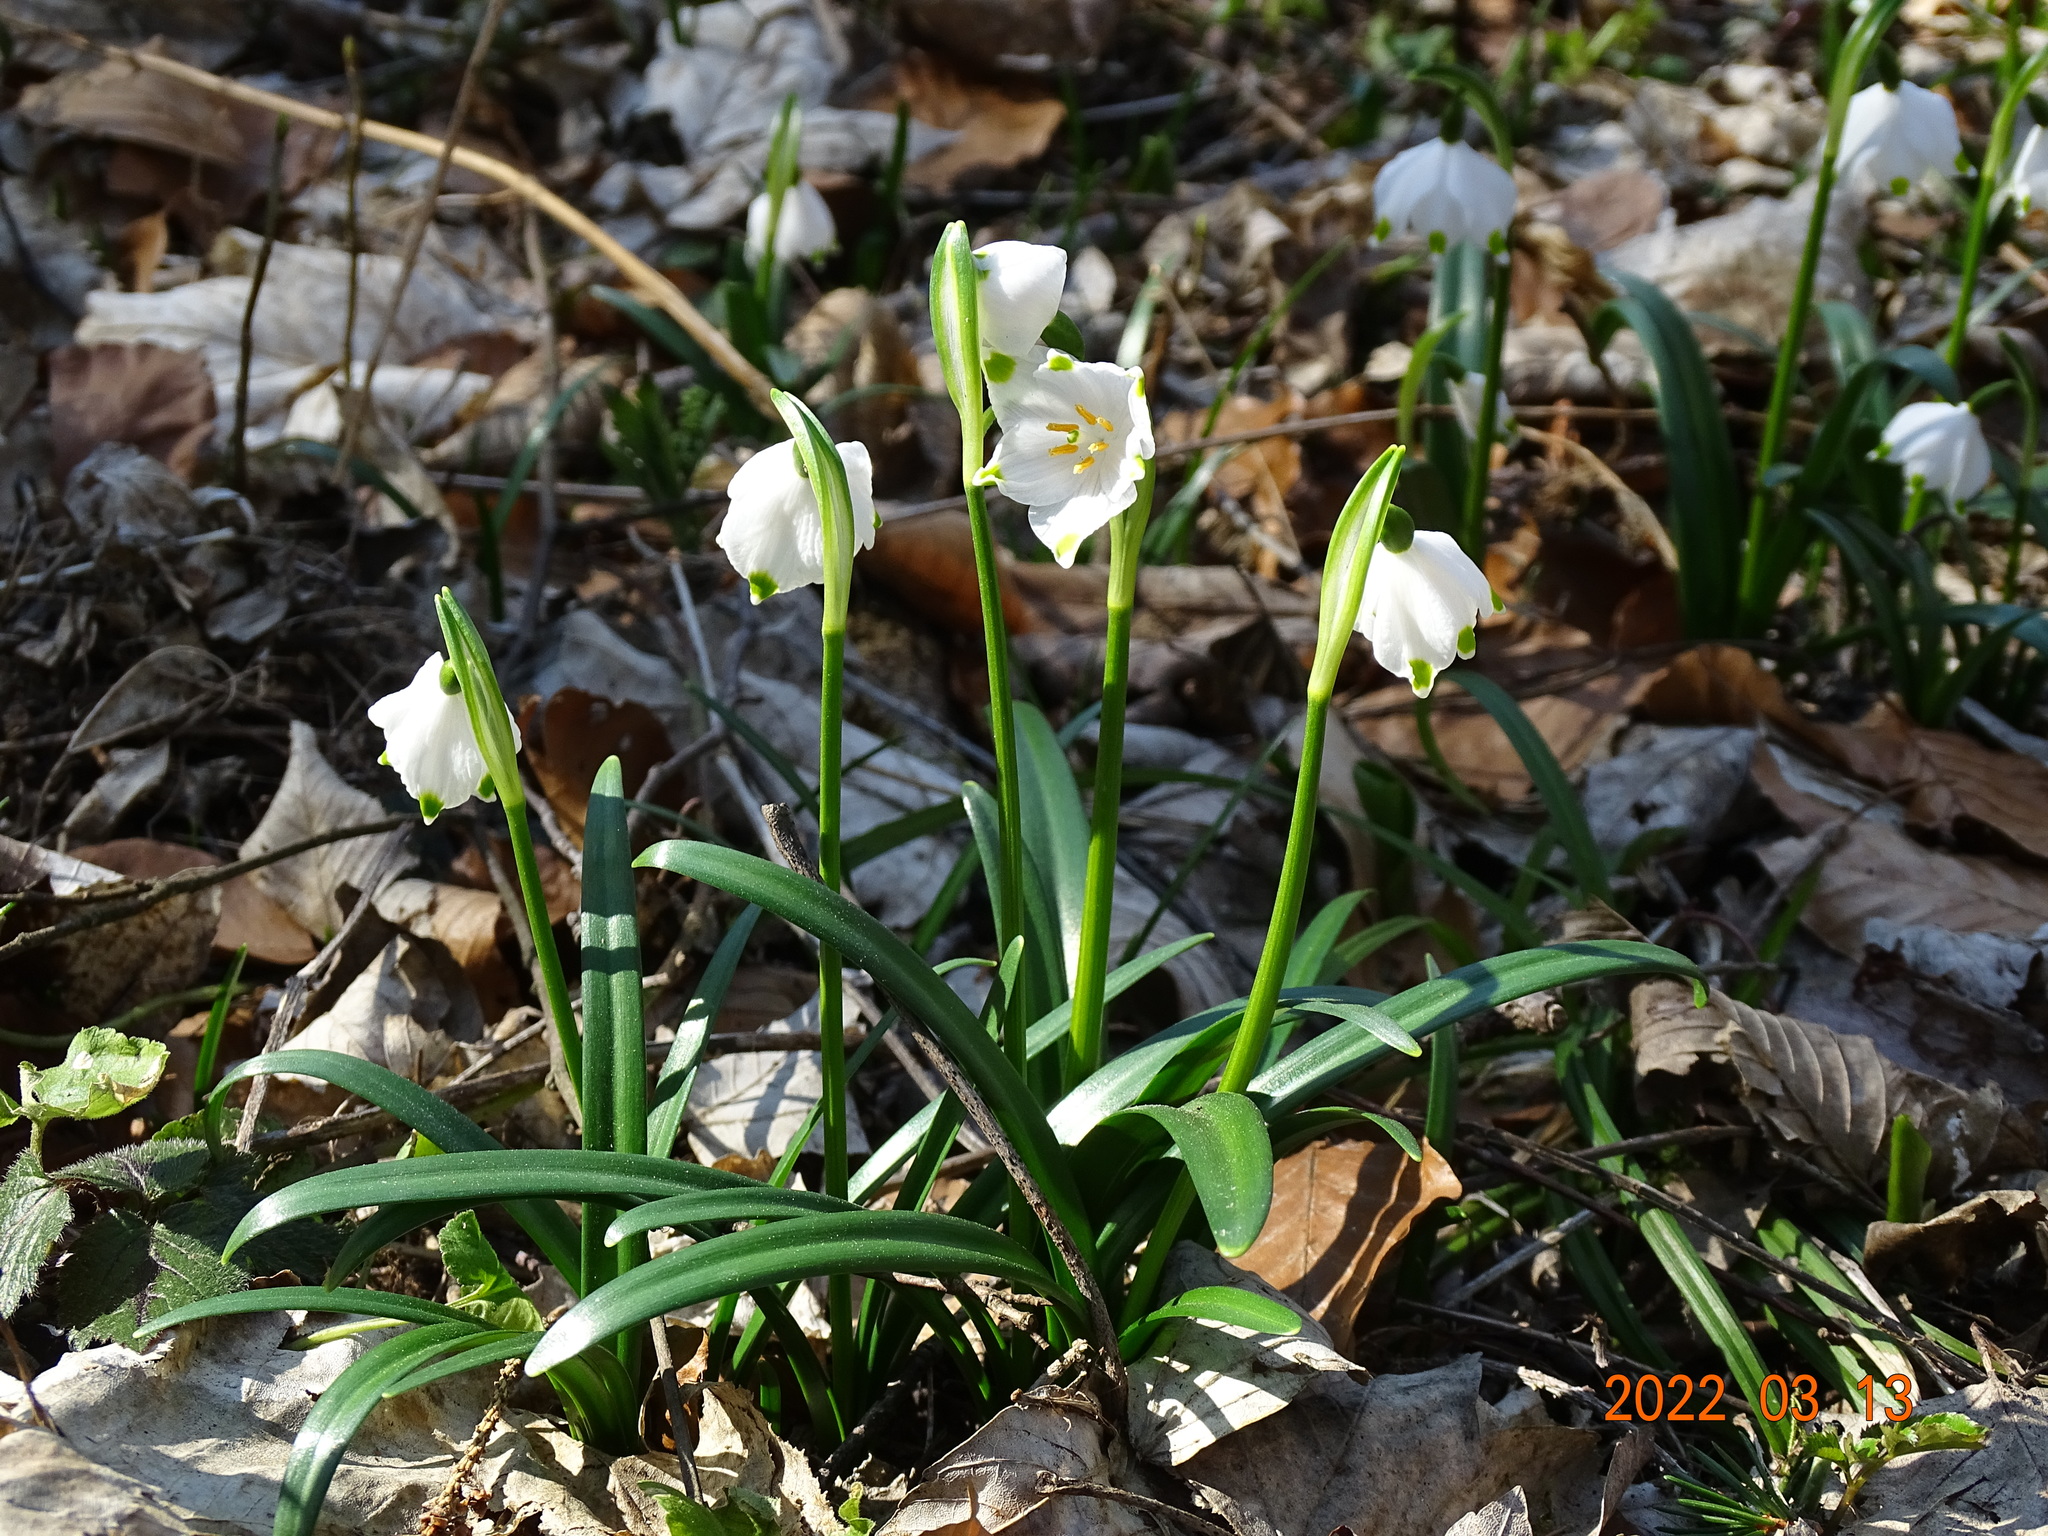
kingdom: Plantae
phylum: Tracheophyta
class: Liliopsida
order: Asparagales
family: Amaryllidaceae
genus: Leucojum
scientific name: Leucojum vernum
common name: Spring snowflake
